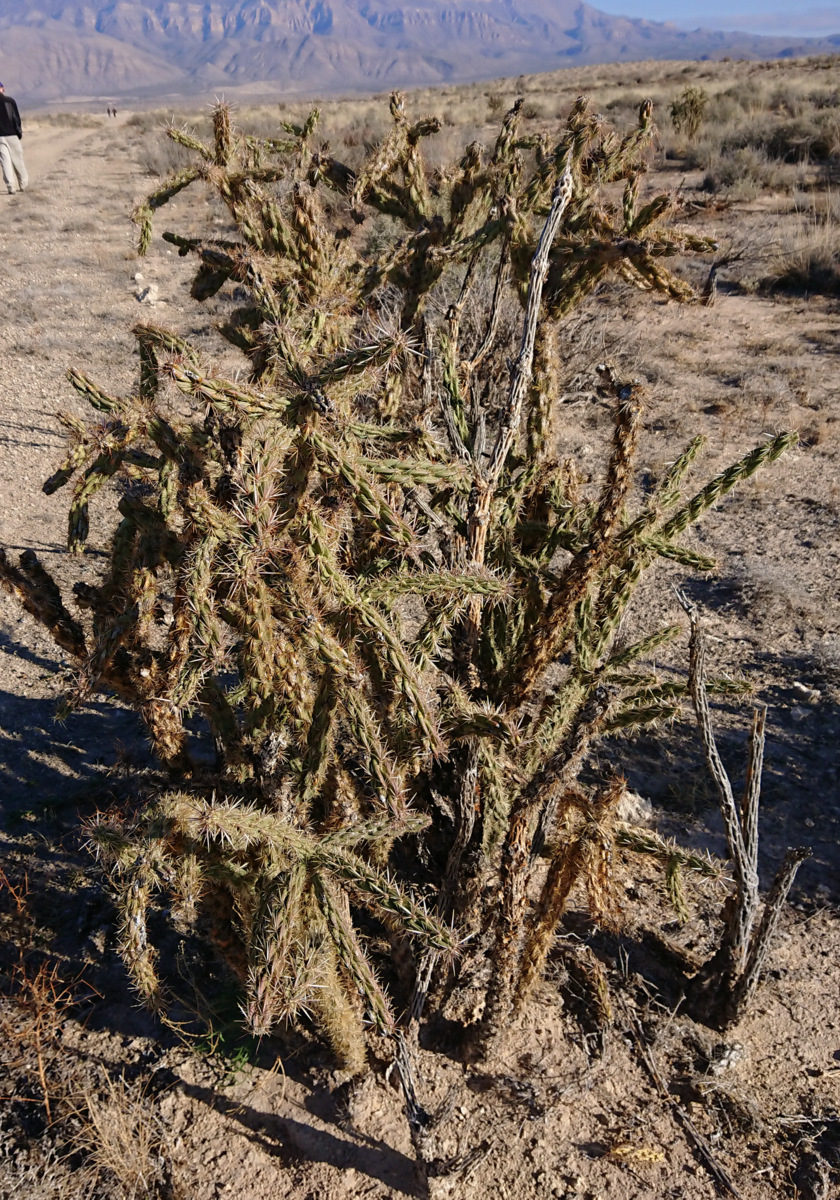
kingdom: Plantae
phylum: Tracheophyta
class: Magnoliopsida
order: Caryophyllales
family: Cactaceae
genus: Cylindropuntia
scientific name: Cylindropuntia imbricata
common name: Candelabrum cactus
